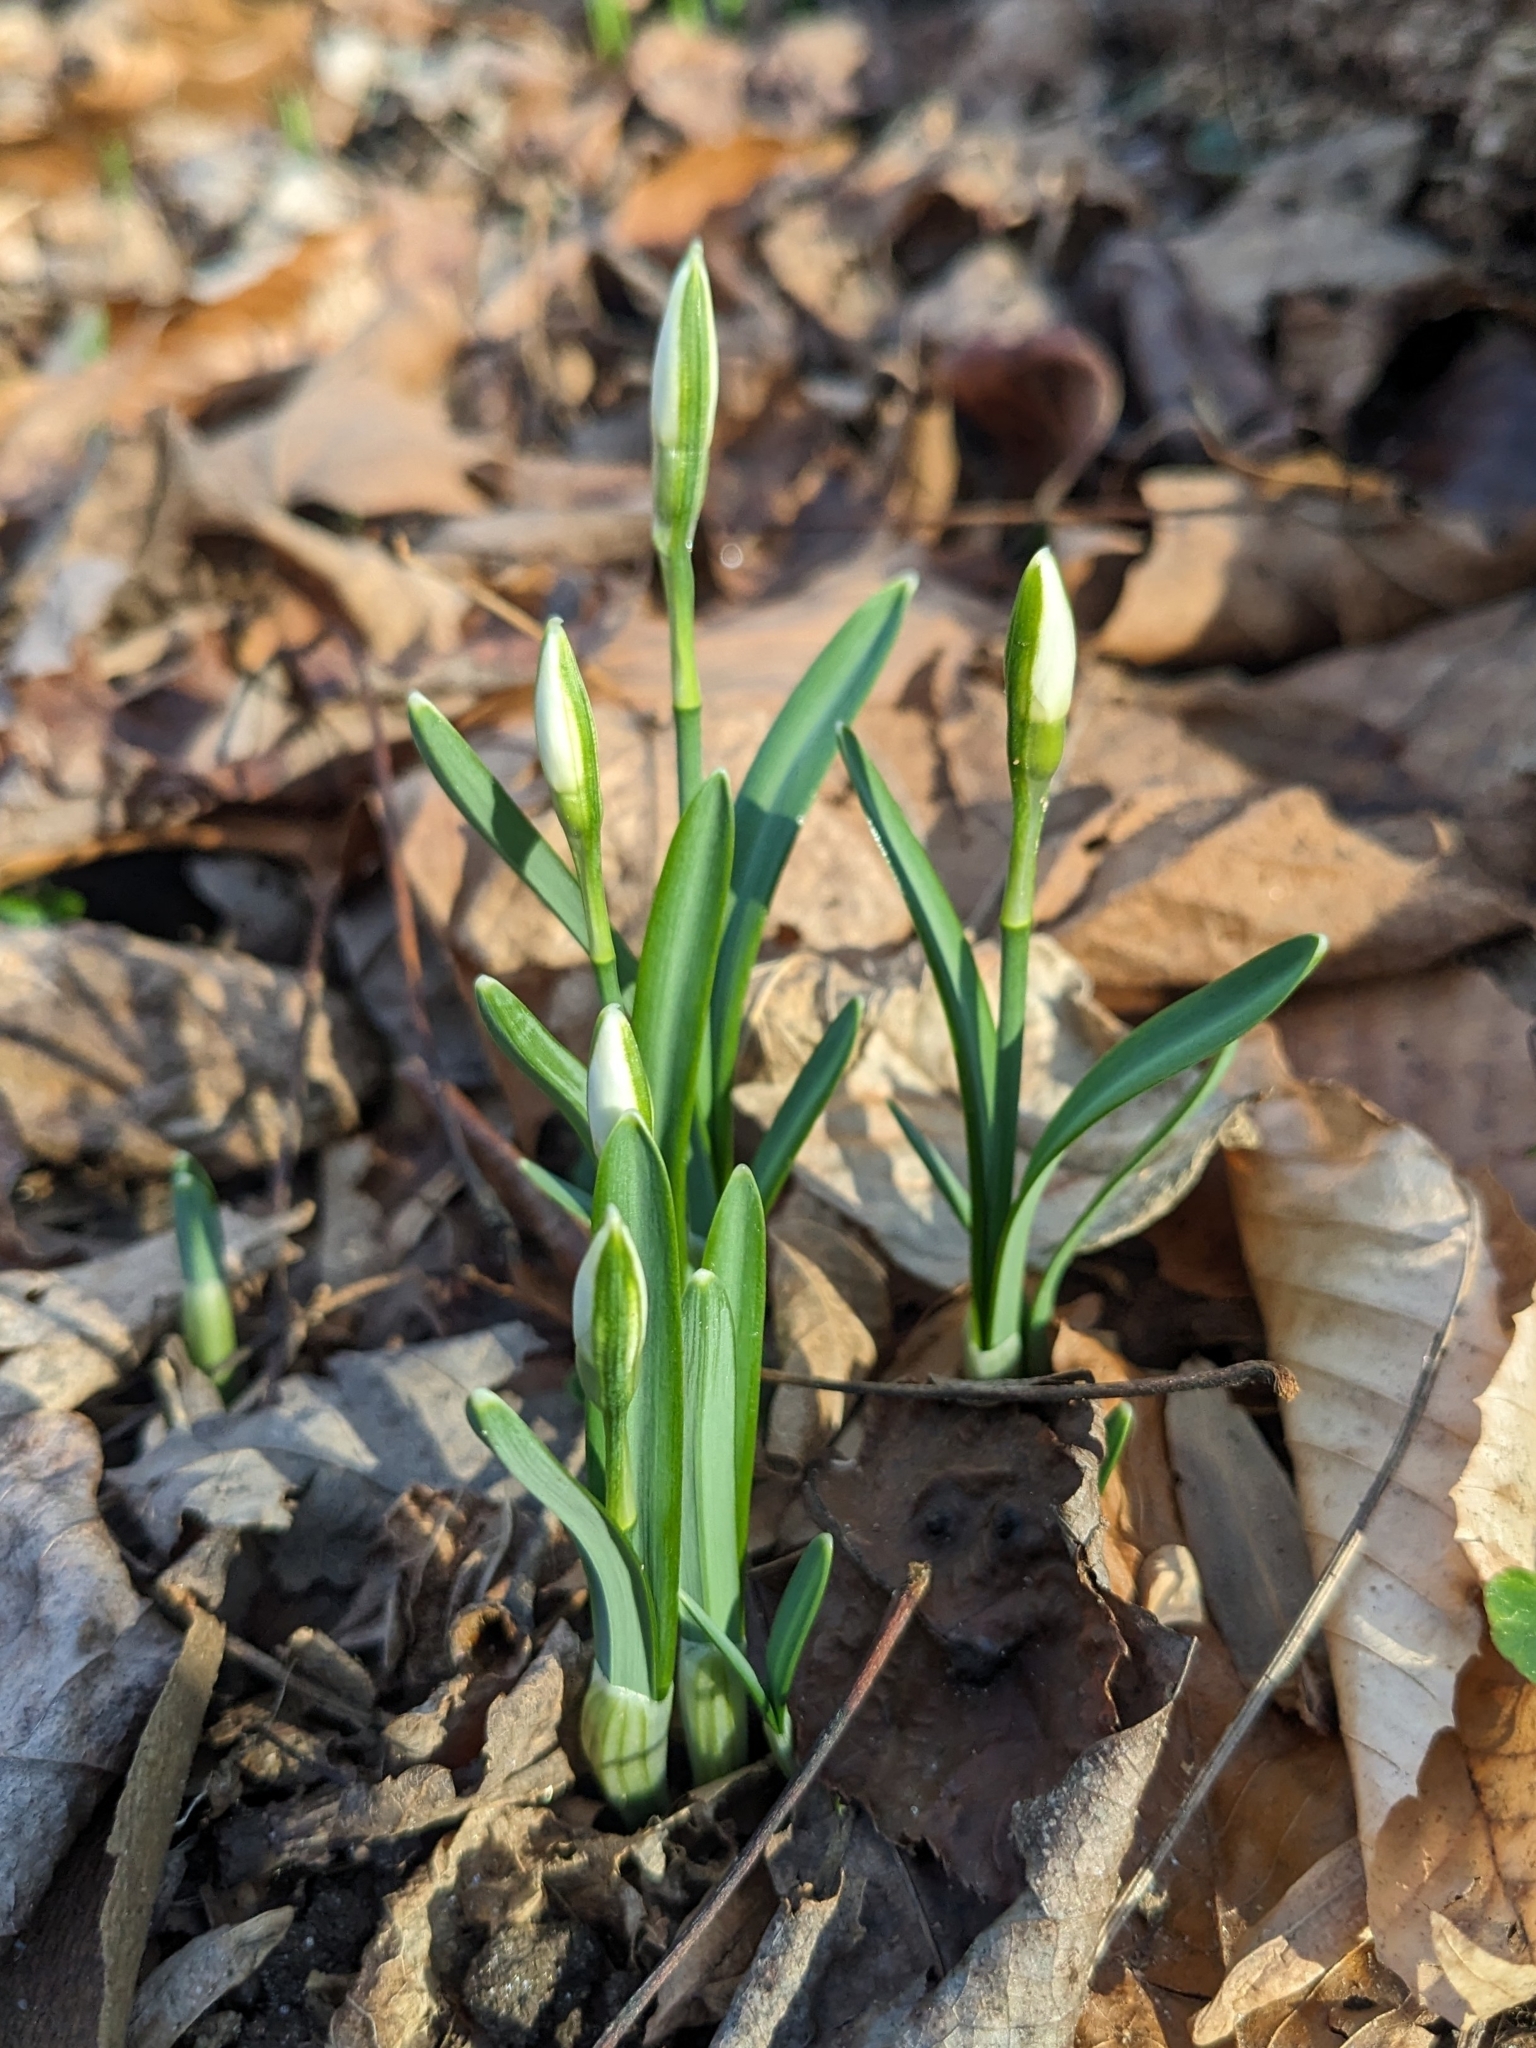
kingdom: Plantae
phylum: Tracheophyta
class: Liliopsida
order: Asparagales
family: Amaryllidaceae
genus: Galanthus
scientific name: Galanthus nivalis
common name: Snowdrop
